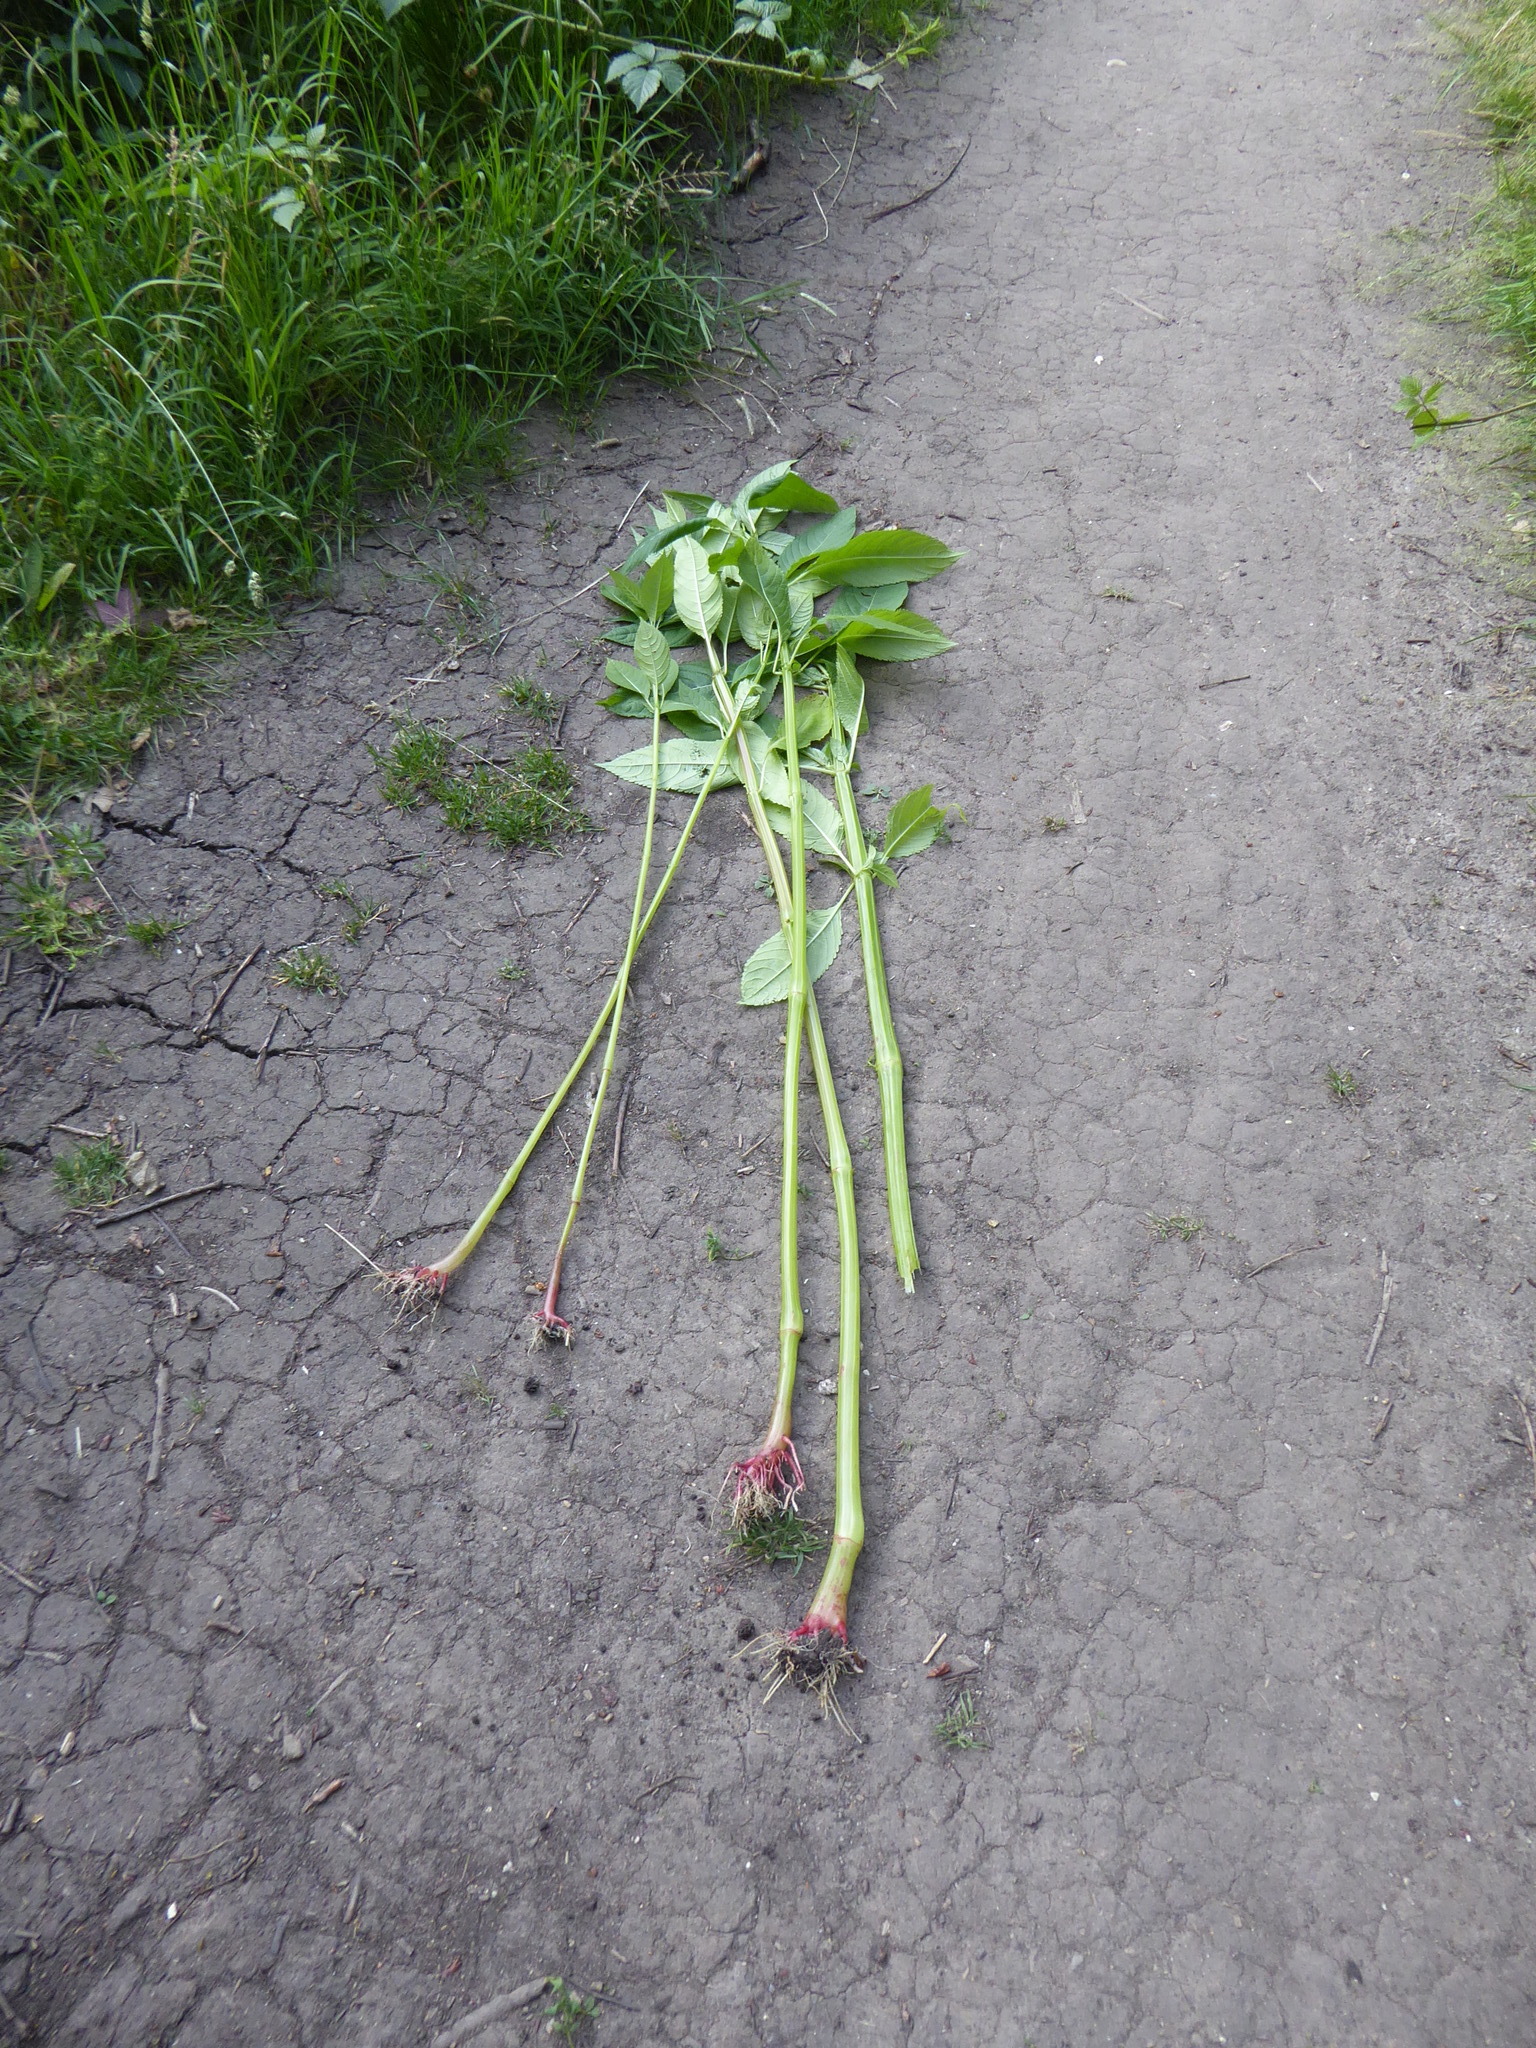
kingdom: Plantae
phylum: Tracheophyta
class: Magnoliopsida
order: Ericales
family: Balsaminaceae
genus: Impatiens
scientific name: Impatiens glandulifera
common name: Himalayan balsam
